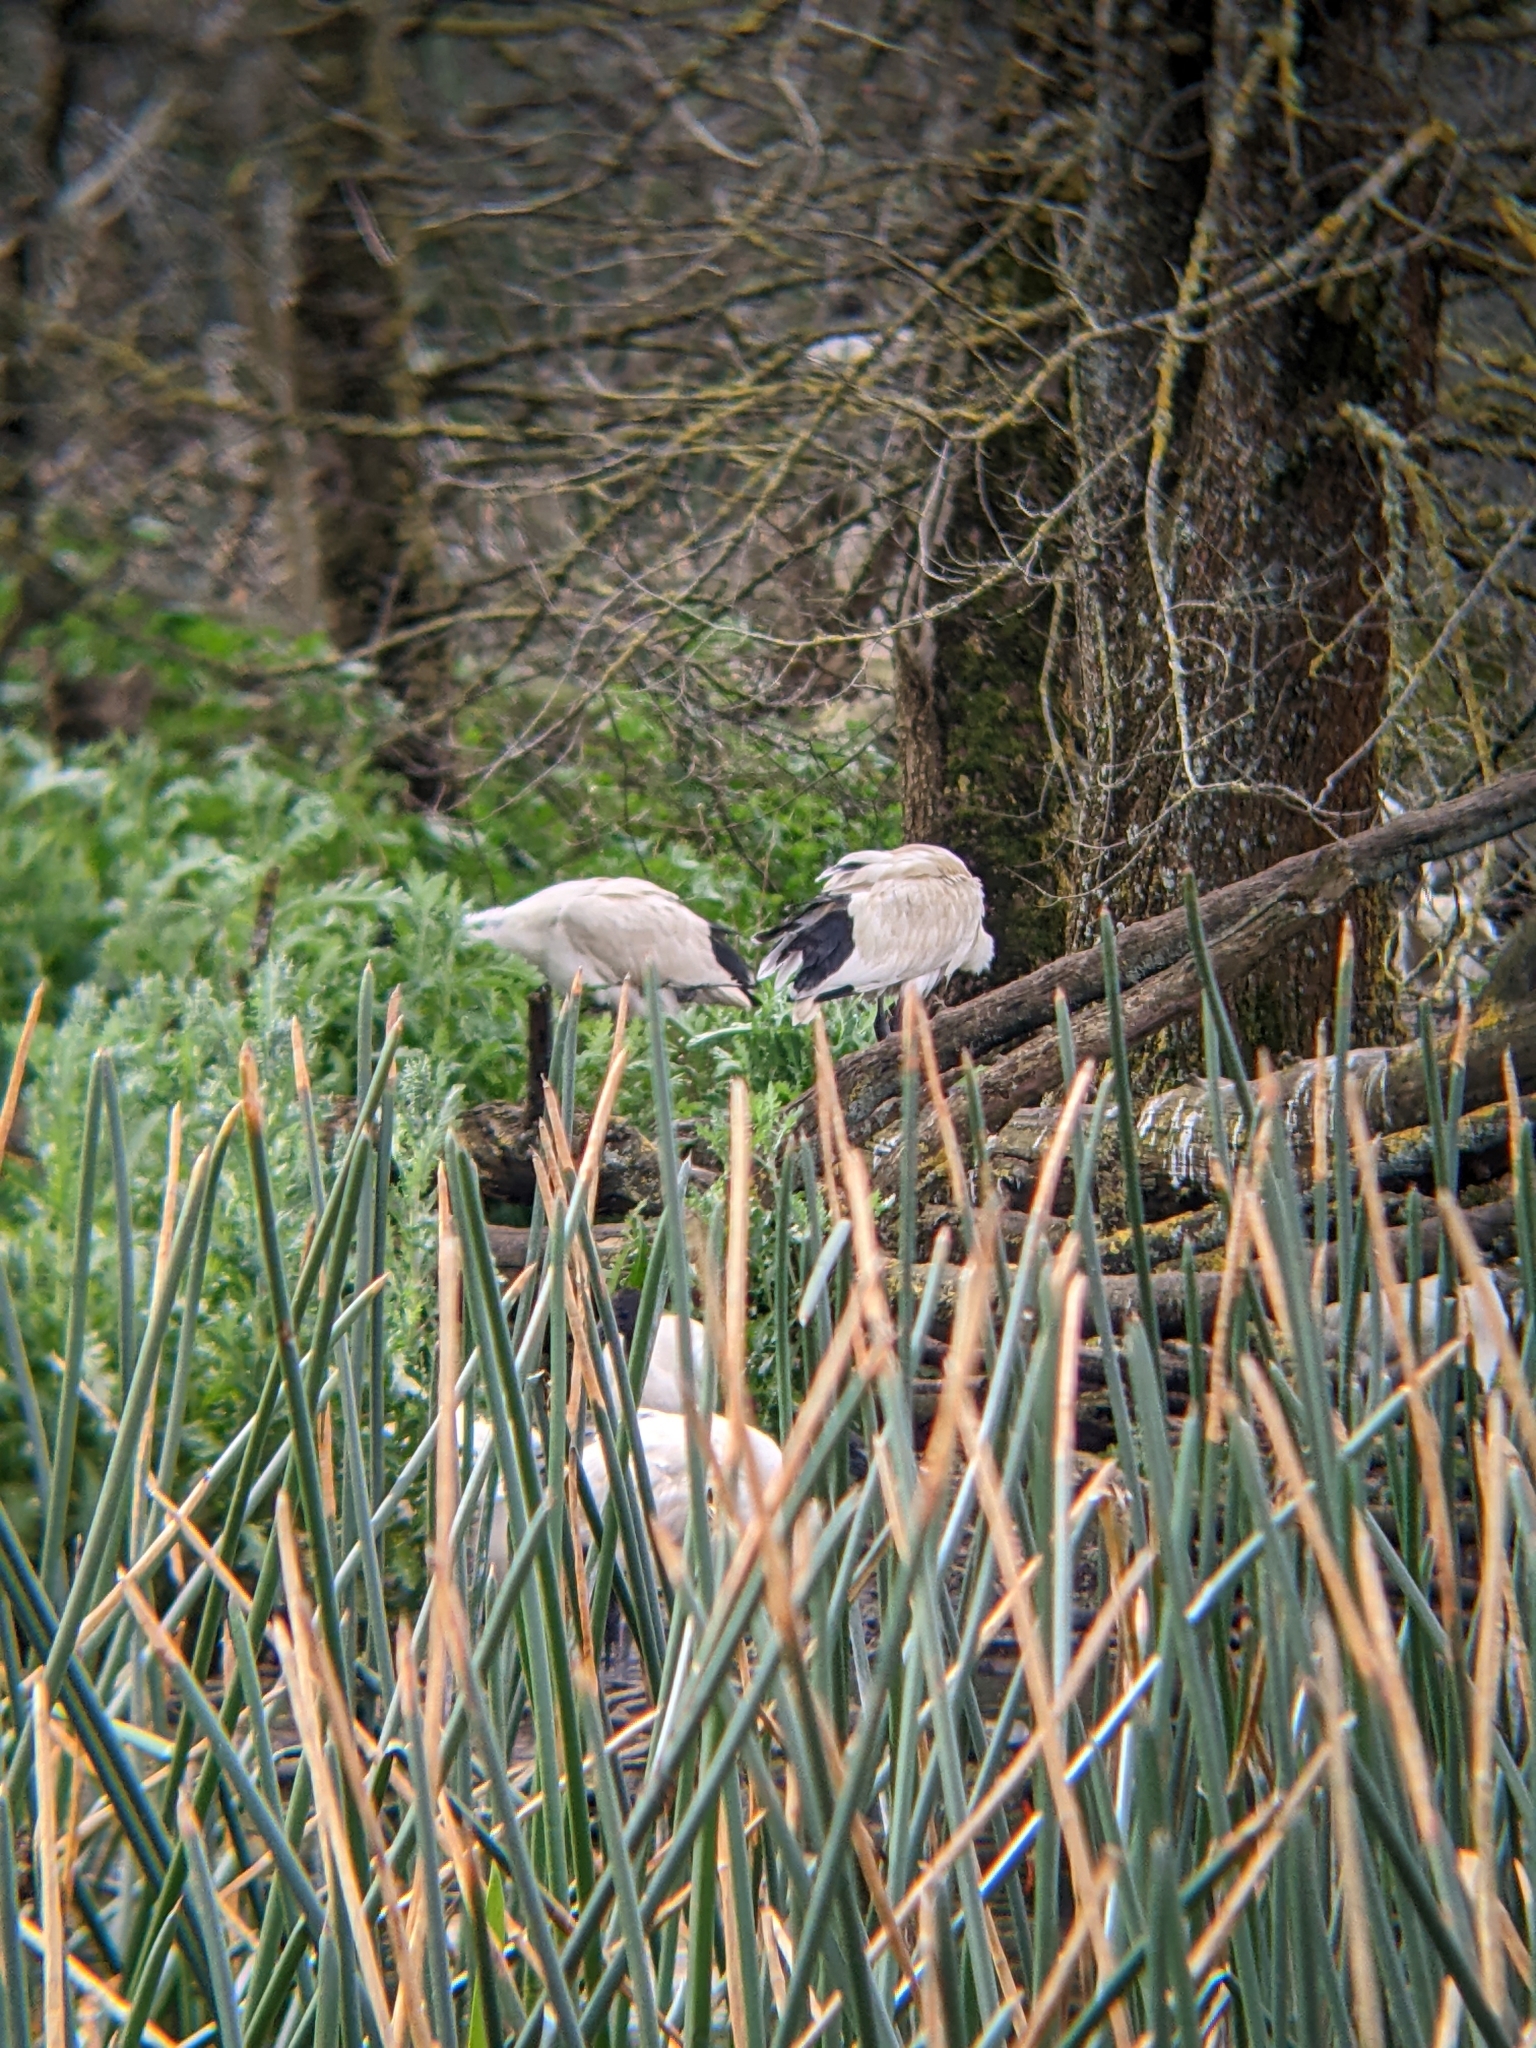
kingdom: Animalia
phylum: Chordata
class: Aves
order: Pelecaniformes
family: Threskiornithidae
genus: Threskiornis
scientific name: Threskiornis molucca
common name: Australian white ibis
